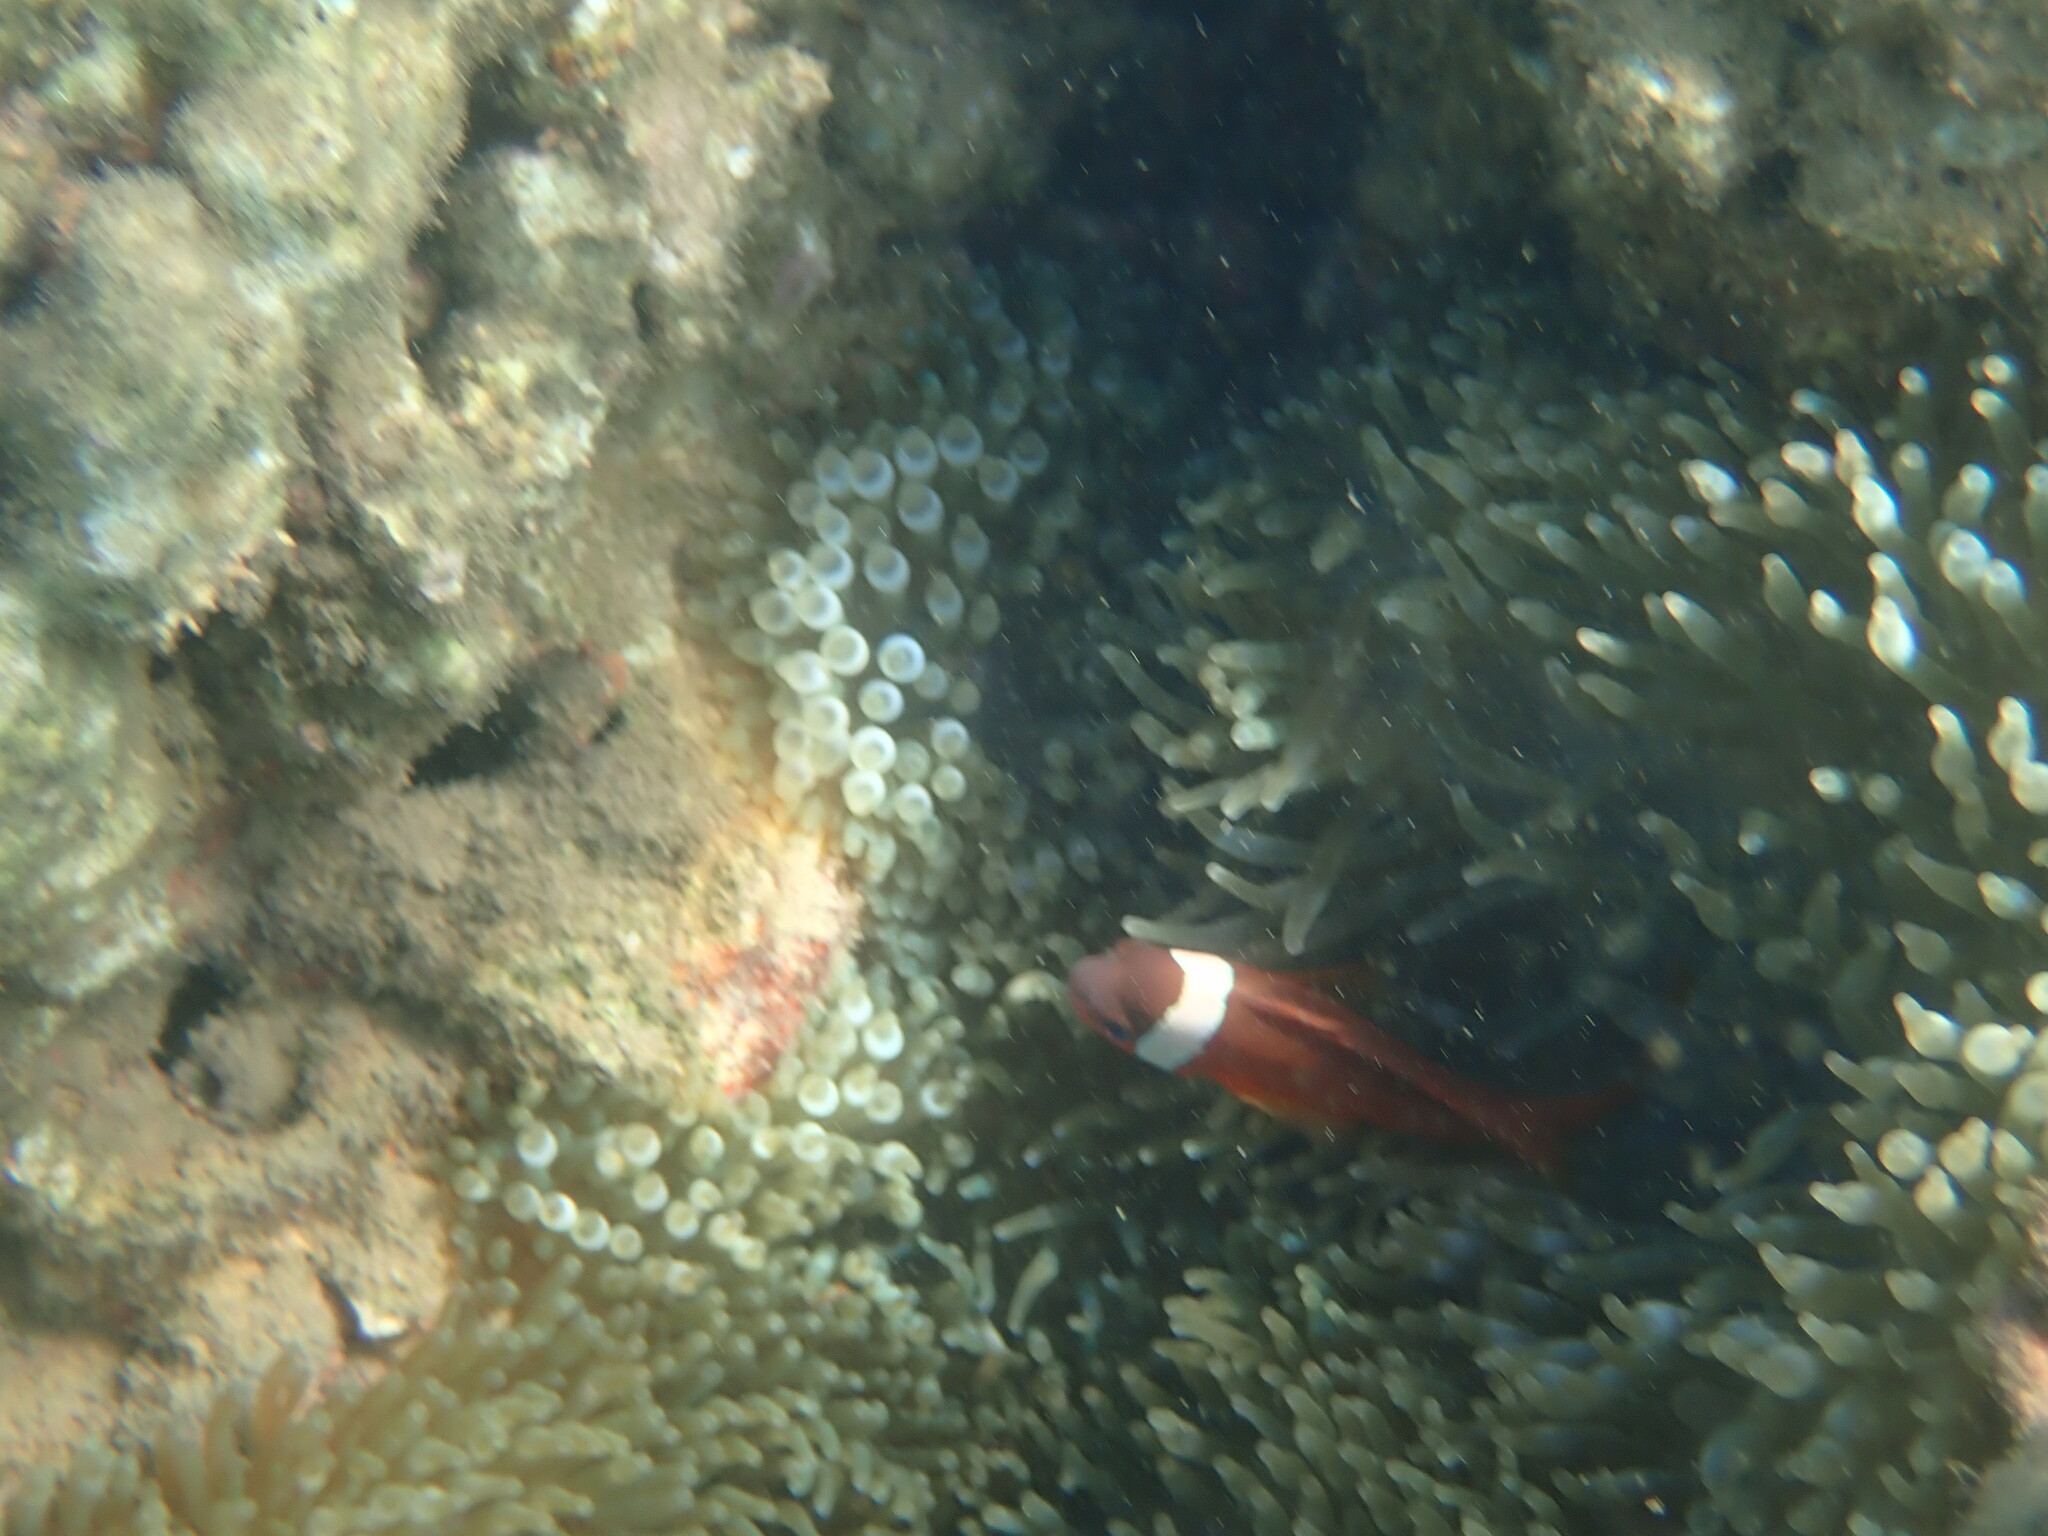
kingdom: Animalia
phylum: Chordata
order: Perciformes
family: Pomacentridae
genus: Amphiprion
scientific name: Amphiprion barberi
